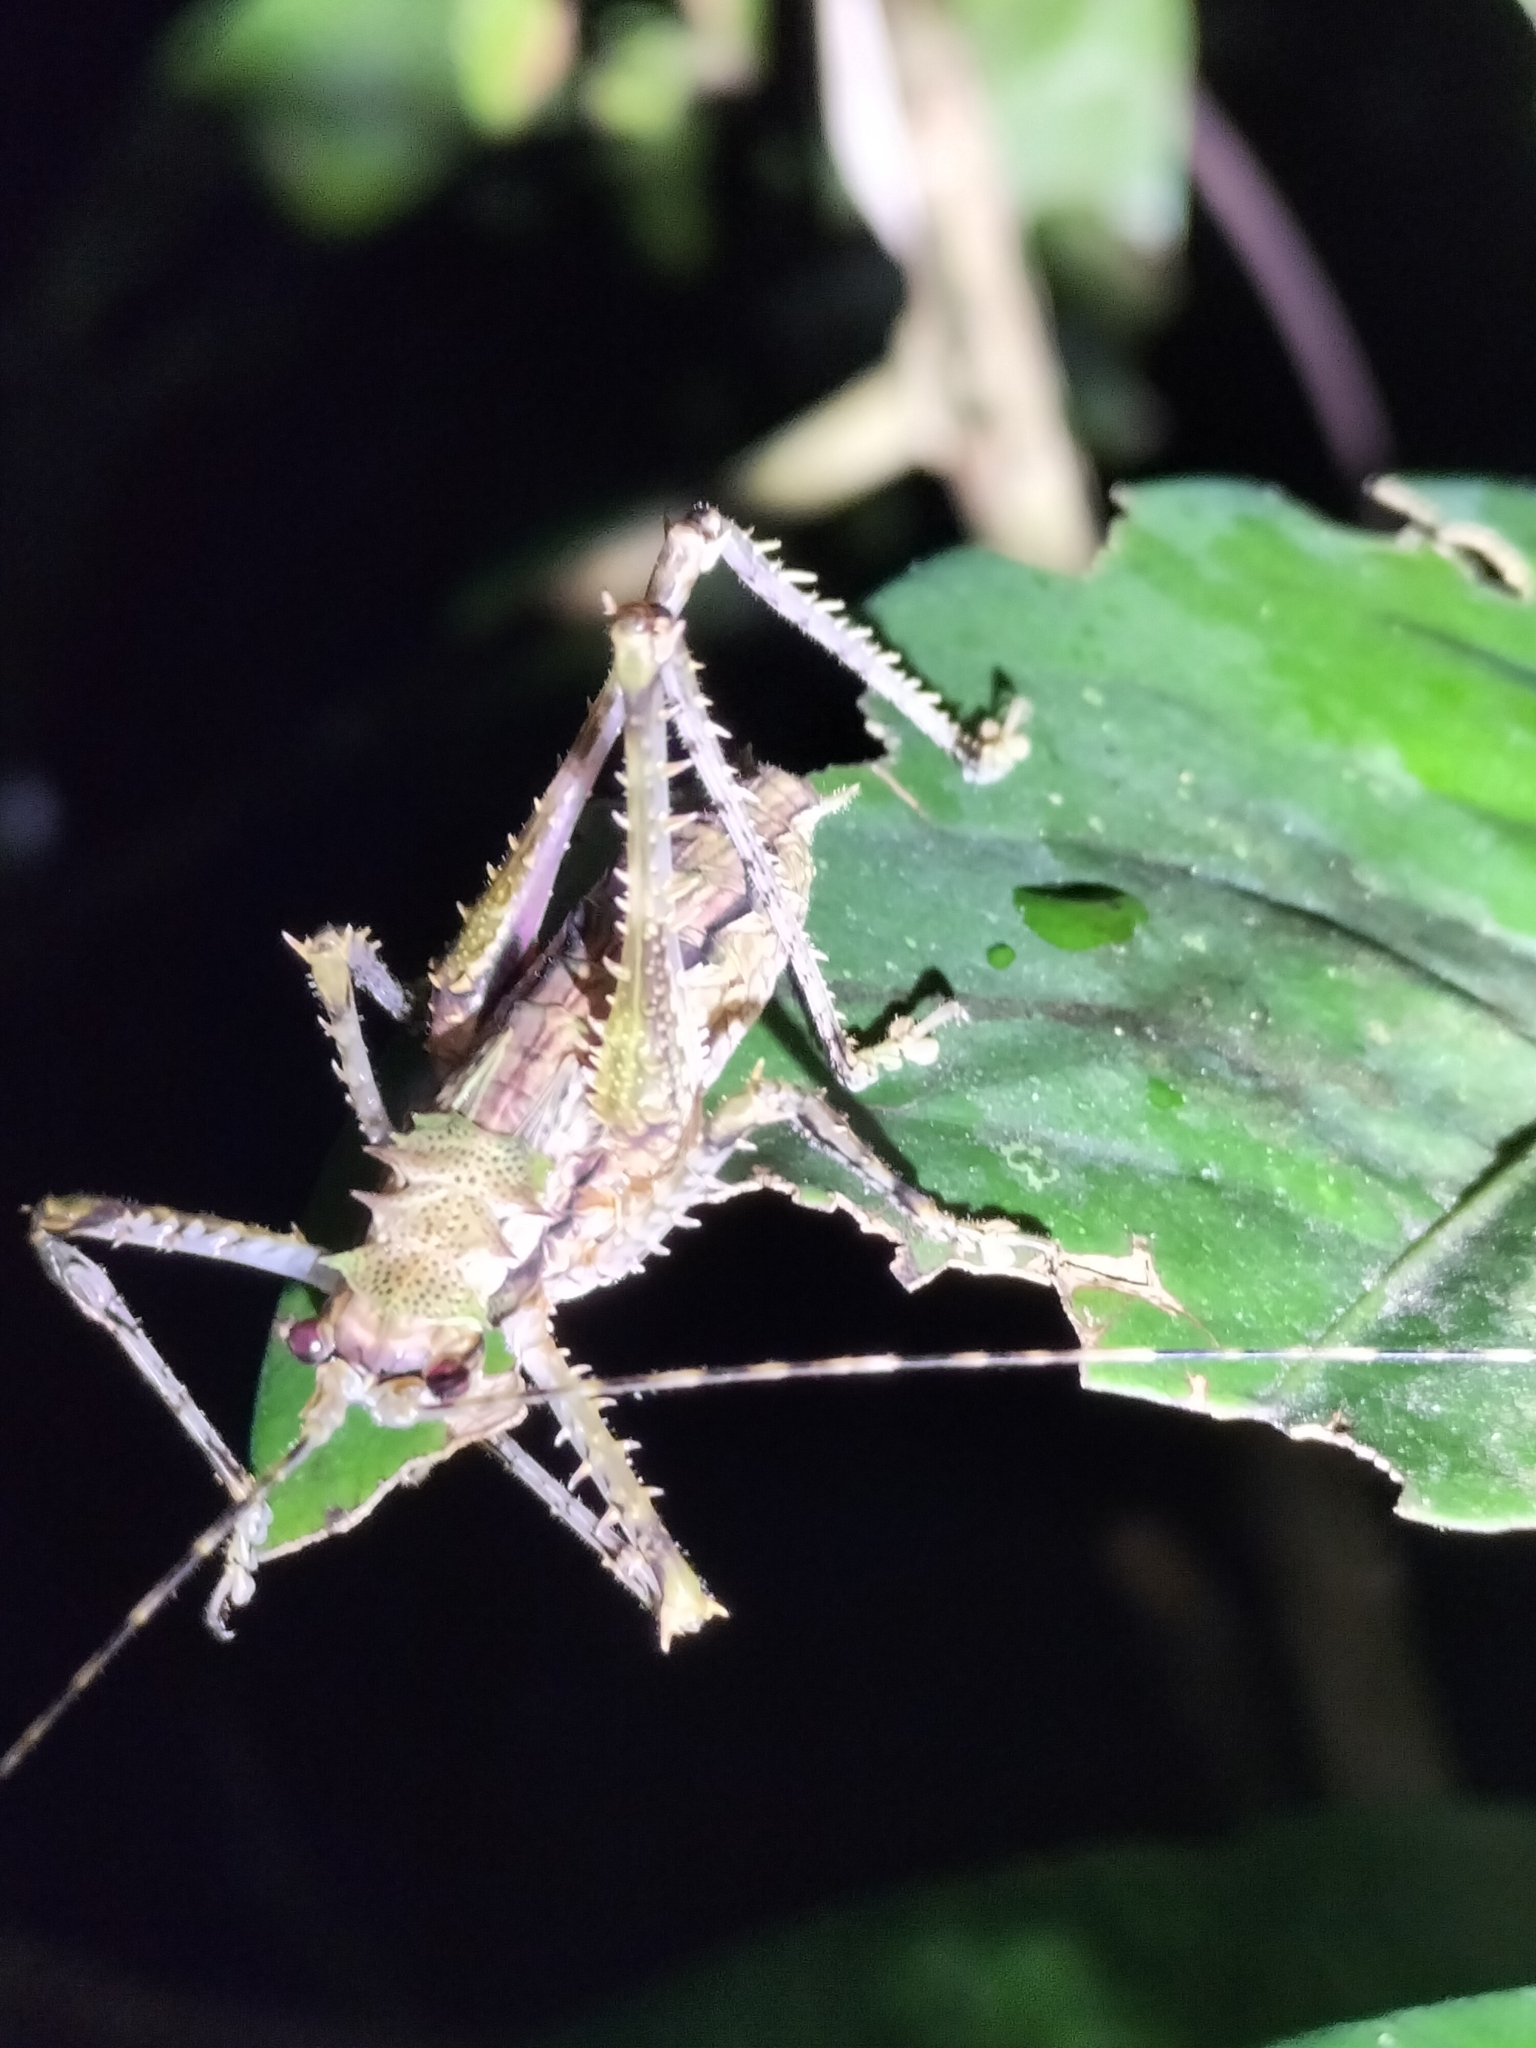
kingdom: Animalia
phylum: Arthropoda
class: Insecta
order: Orthoptera
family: Tettigoniidae
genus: Phricta
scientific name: Phricta spinosa
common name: Giant spiny forest katydid
